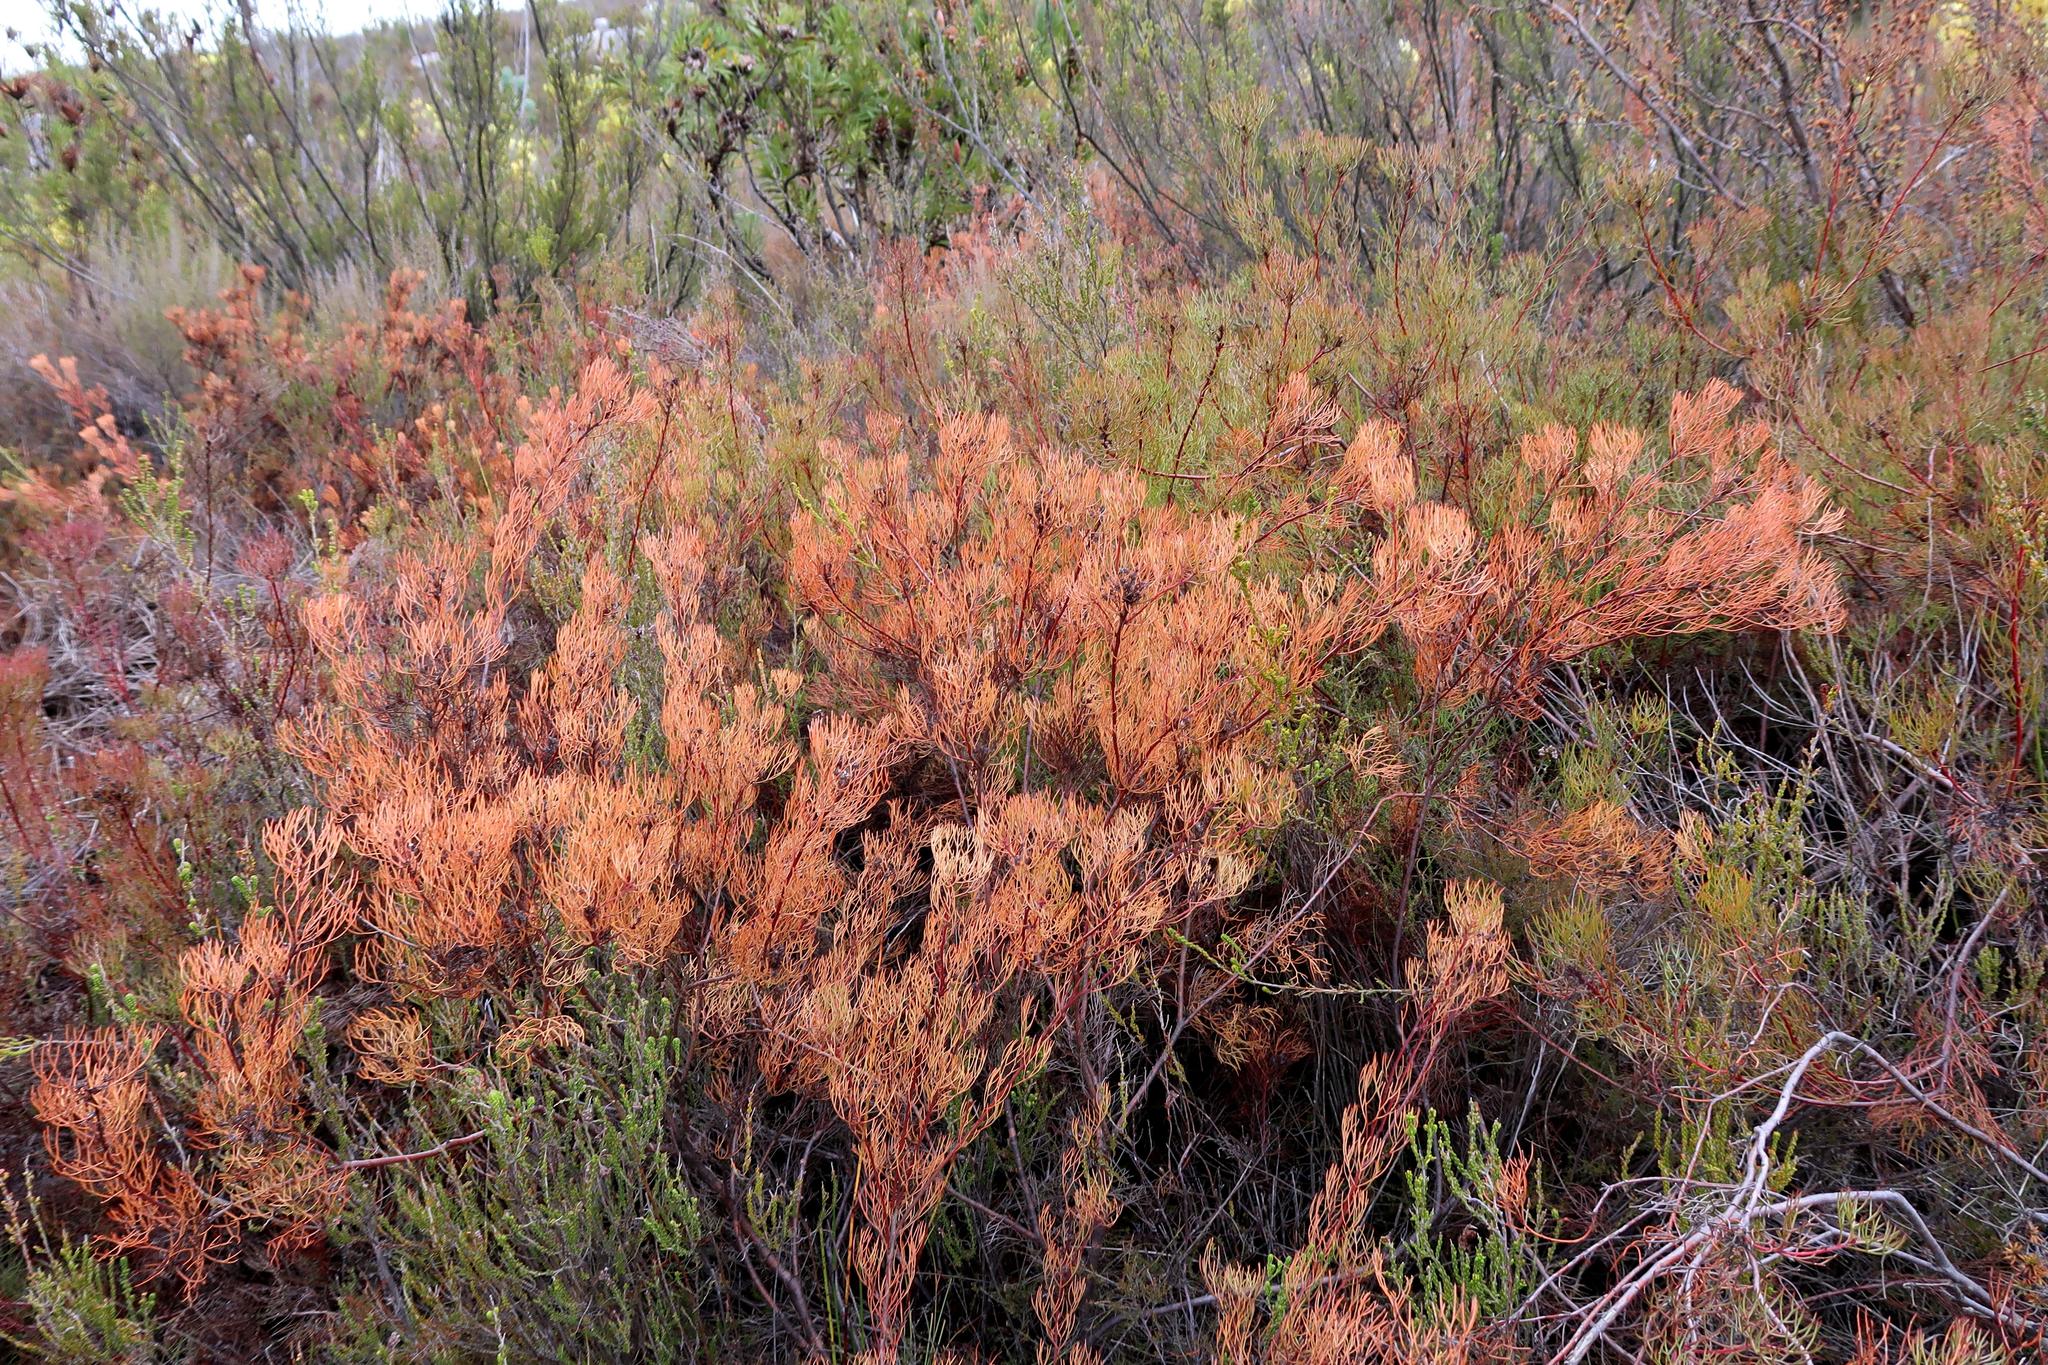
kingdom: Plantae
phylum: Tracheophyta
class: Magnoliopsida
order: Proteales
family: Proteaceae
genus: Serruria
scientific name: Serruria fasciflora
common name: Common pin spiderhead
